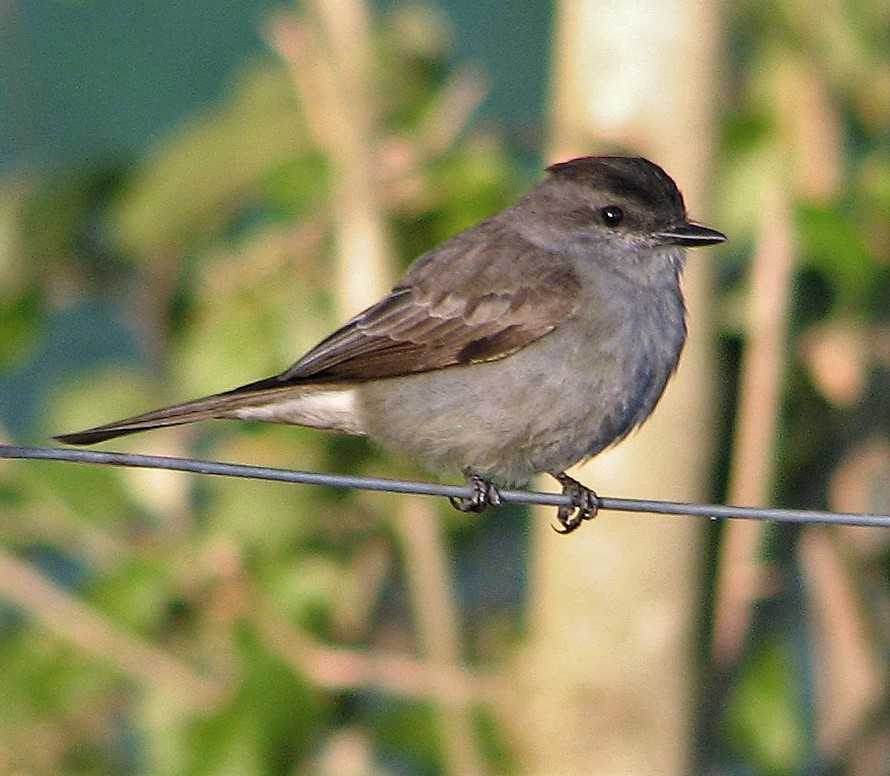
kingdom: Animalia
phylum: Chordata
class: Aves
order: Passeriformes
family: Tyrannidae
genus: Empidonomus
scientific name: Empidonomus aurantioatrocristatus
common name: Crowned slaty flycatcher
